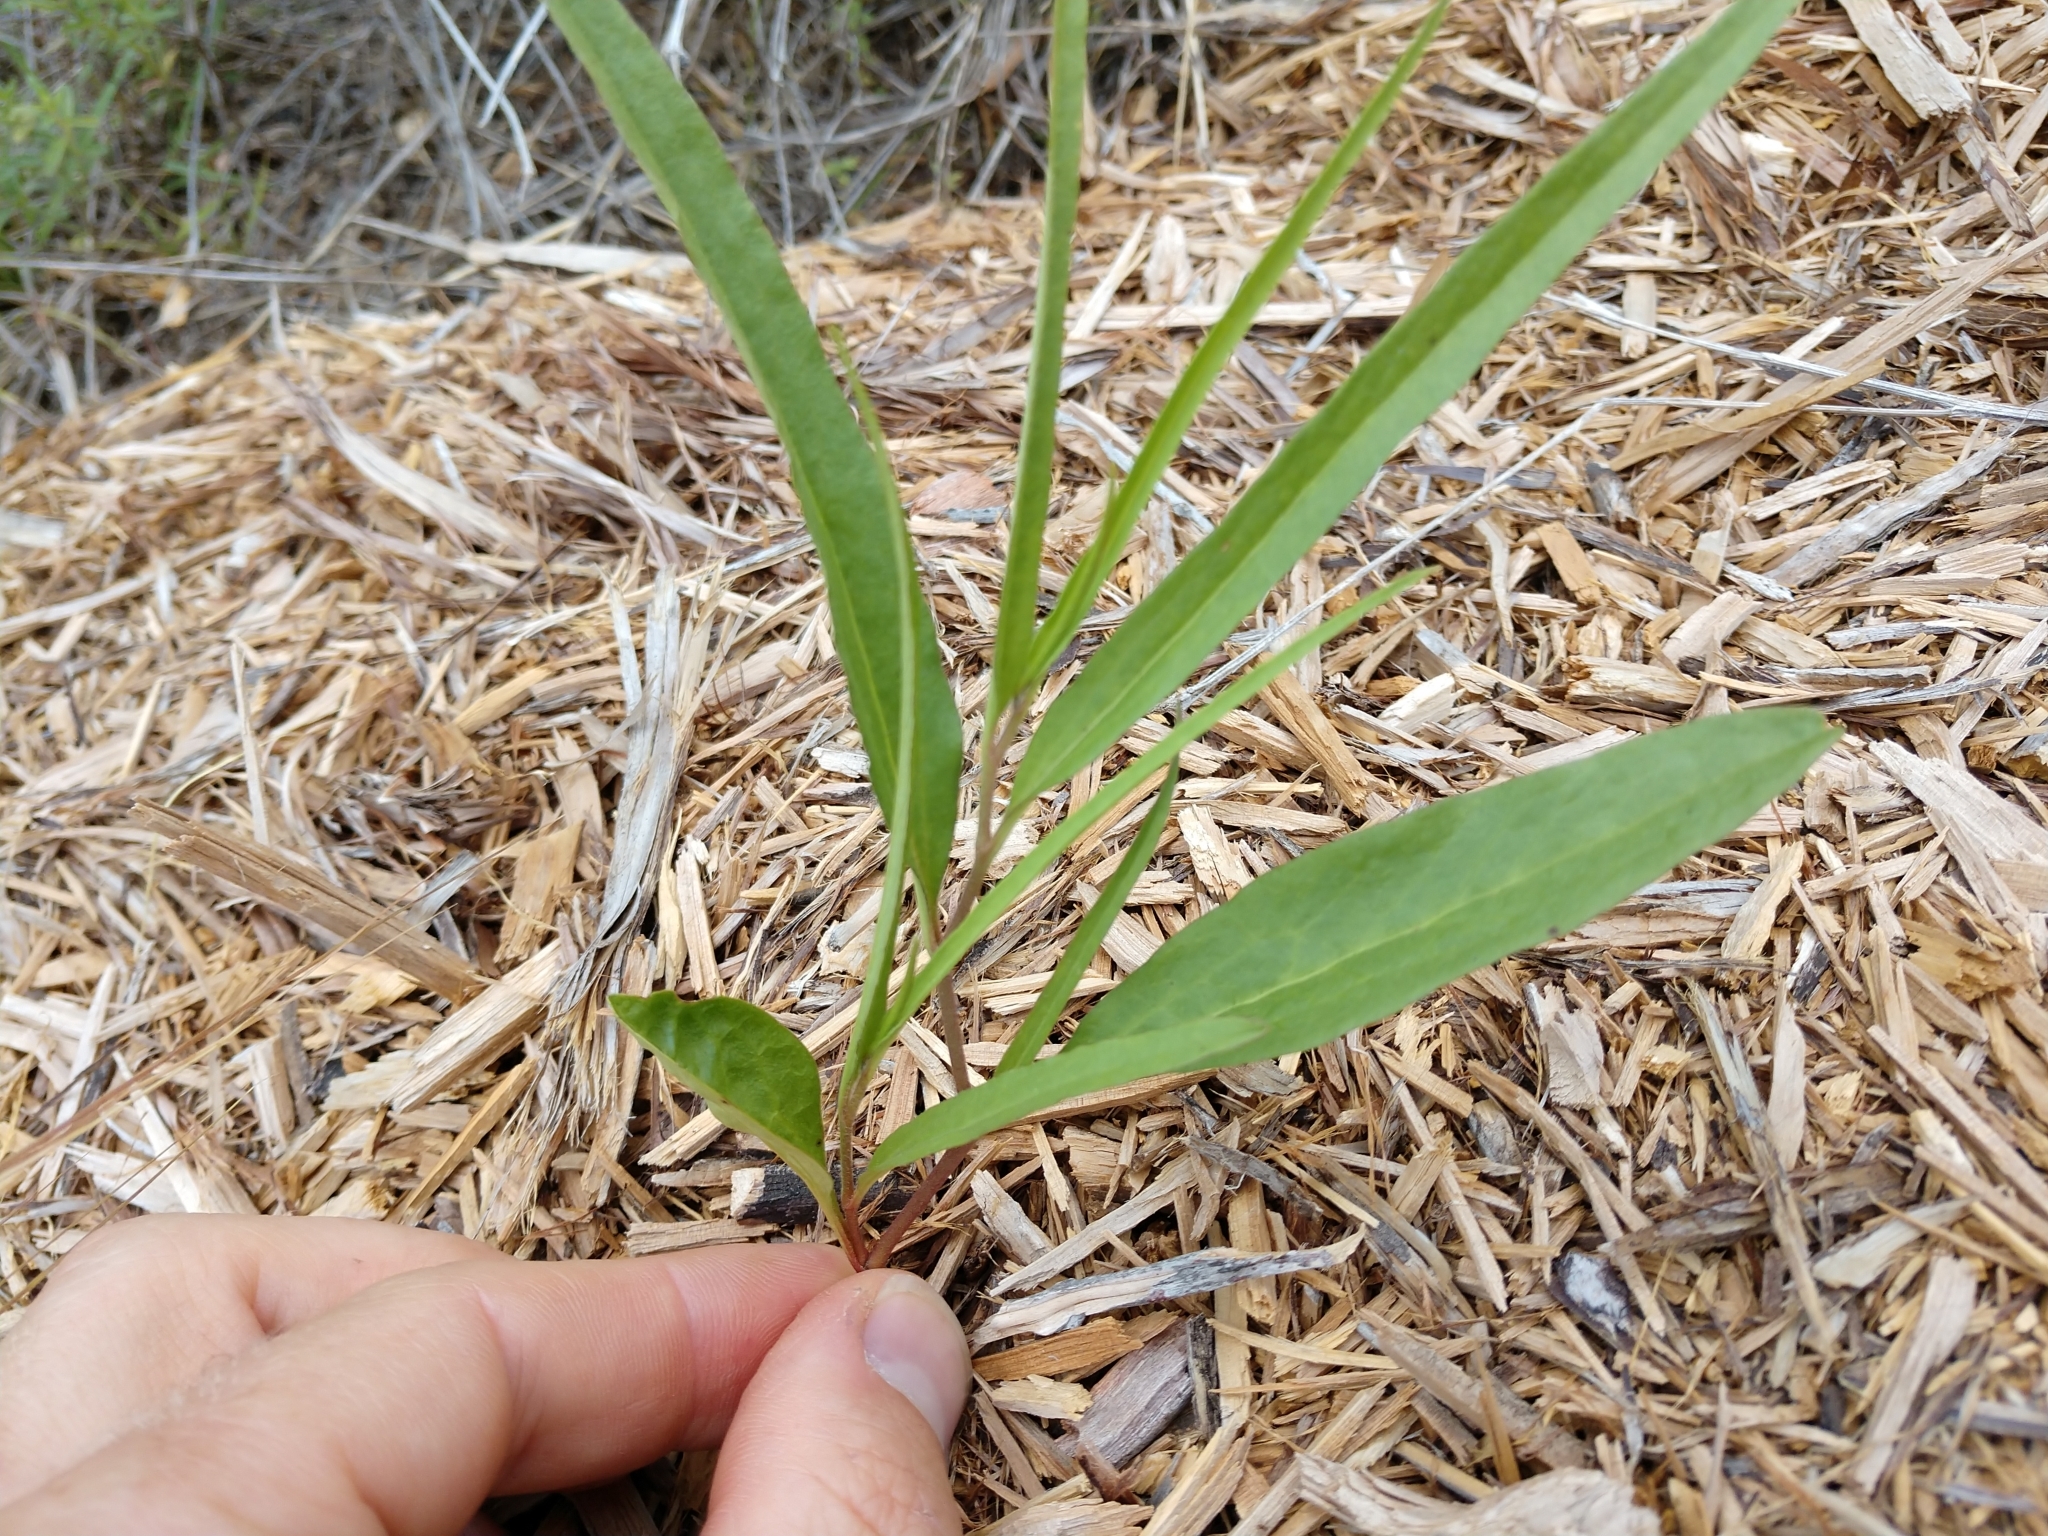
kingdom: Plantae
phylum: Tracheophyta
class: Magnoliopsida
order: Piperales
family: Aristolochiaceae
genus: Aristolochia
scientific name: Aristolochia erecta
